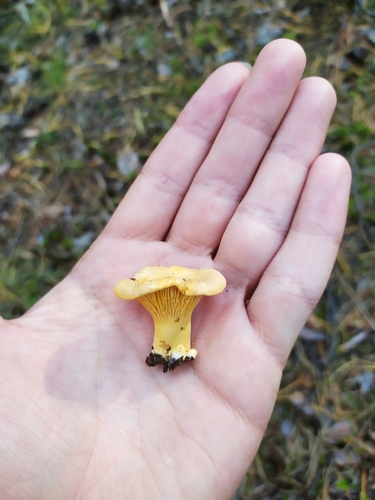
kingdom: Fungi
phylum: Basidiomycota
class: Agaricomycetes
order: Cantharellales
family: Hydnaceae
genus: Cantharellus
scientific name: Cantharellus cibarius
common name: Chanterelle
